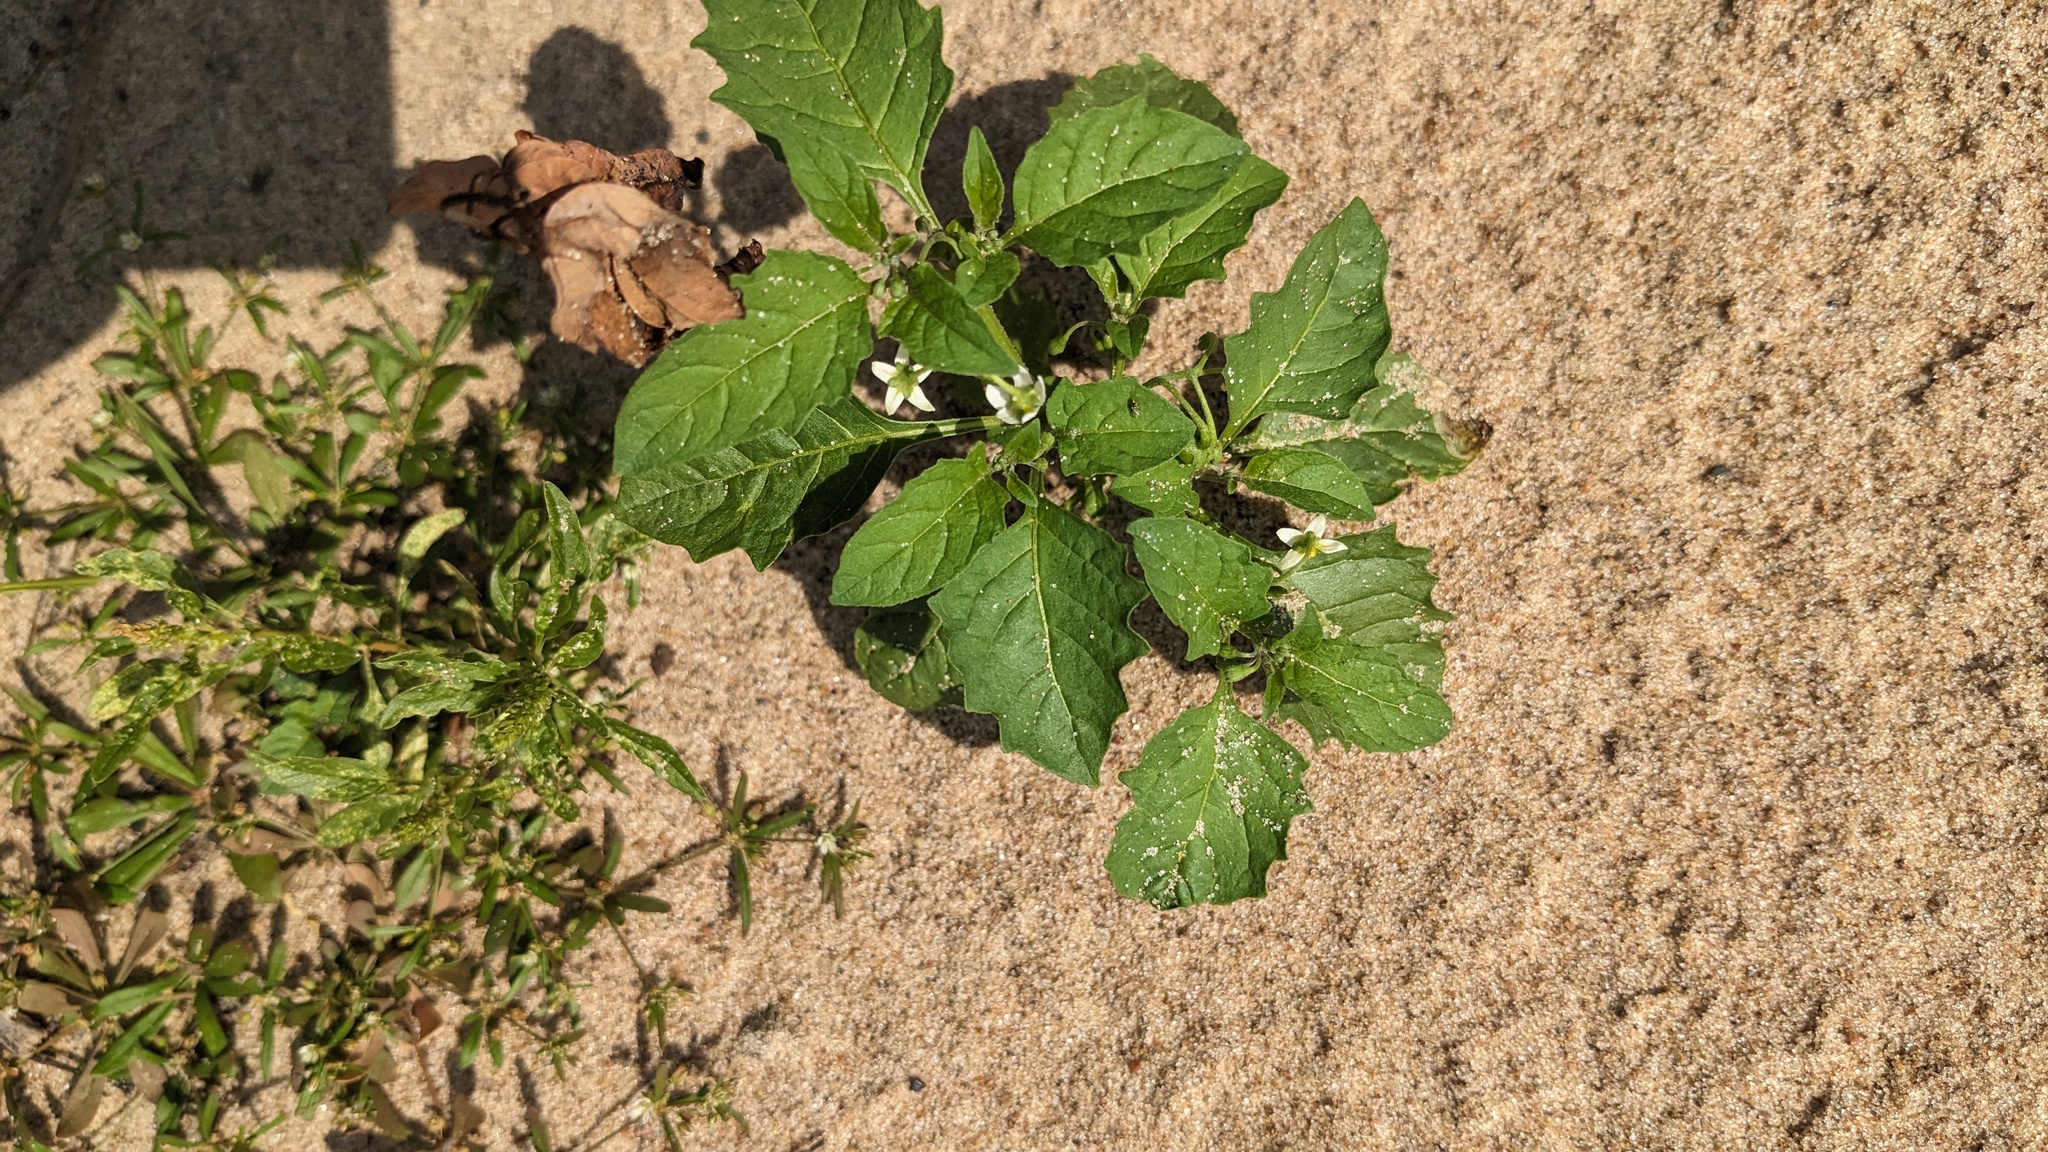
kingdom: Plantae
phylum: Tracheophyta
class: Magnoliopsida
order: Solanales
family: Solanaceae
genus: Solanum
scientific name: Solanum emulans
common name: Eastern black nightshade
